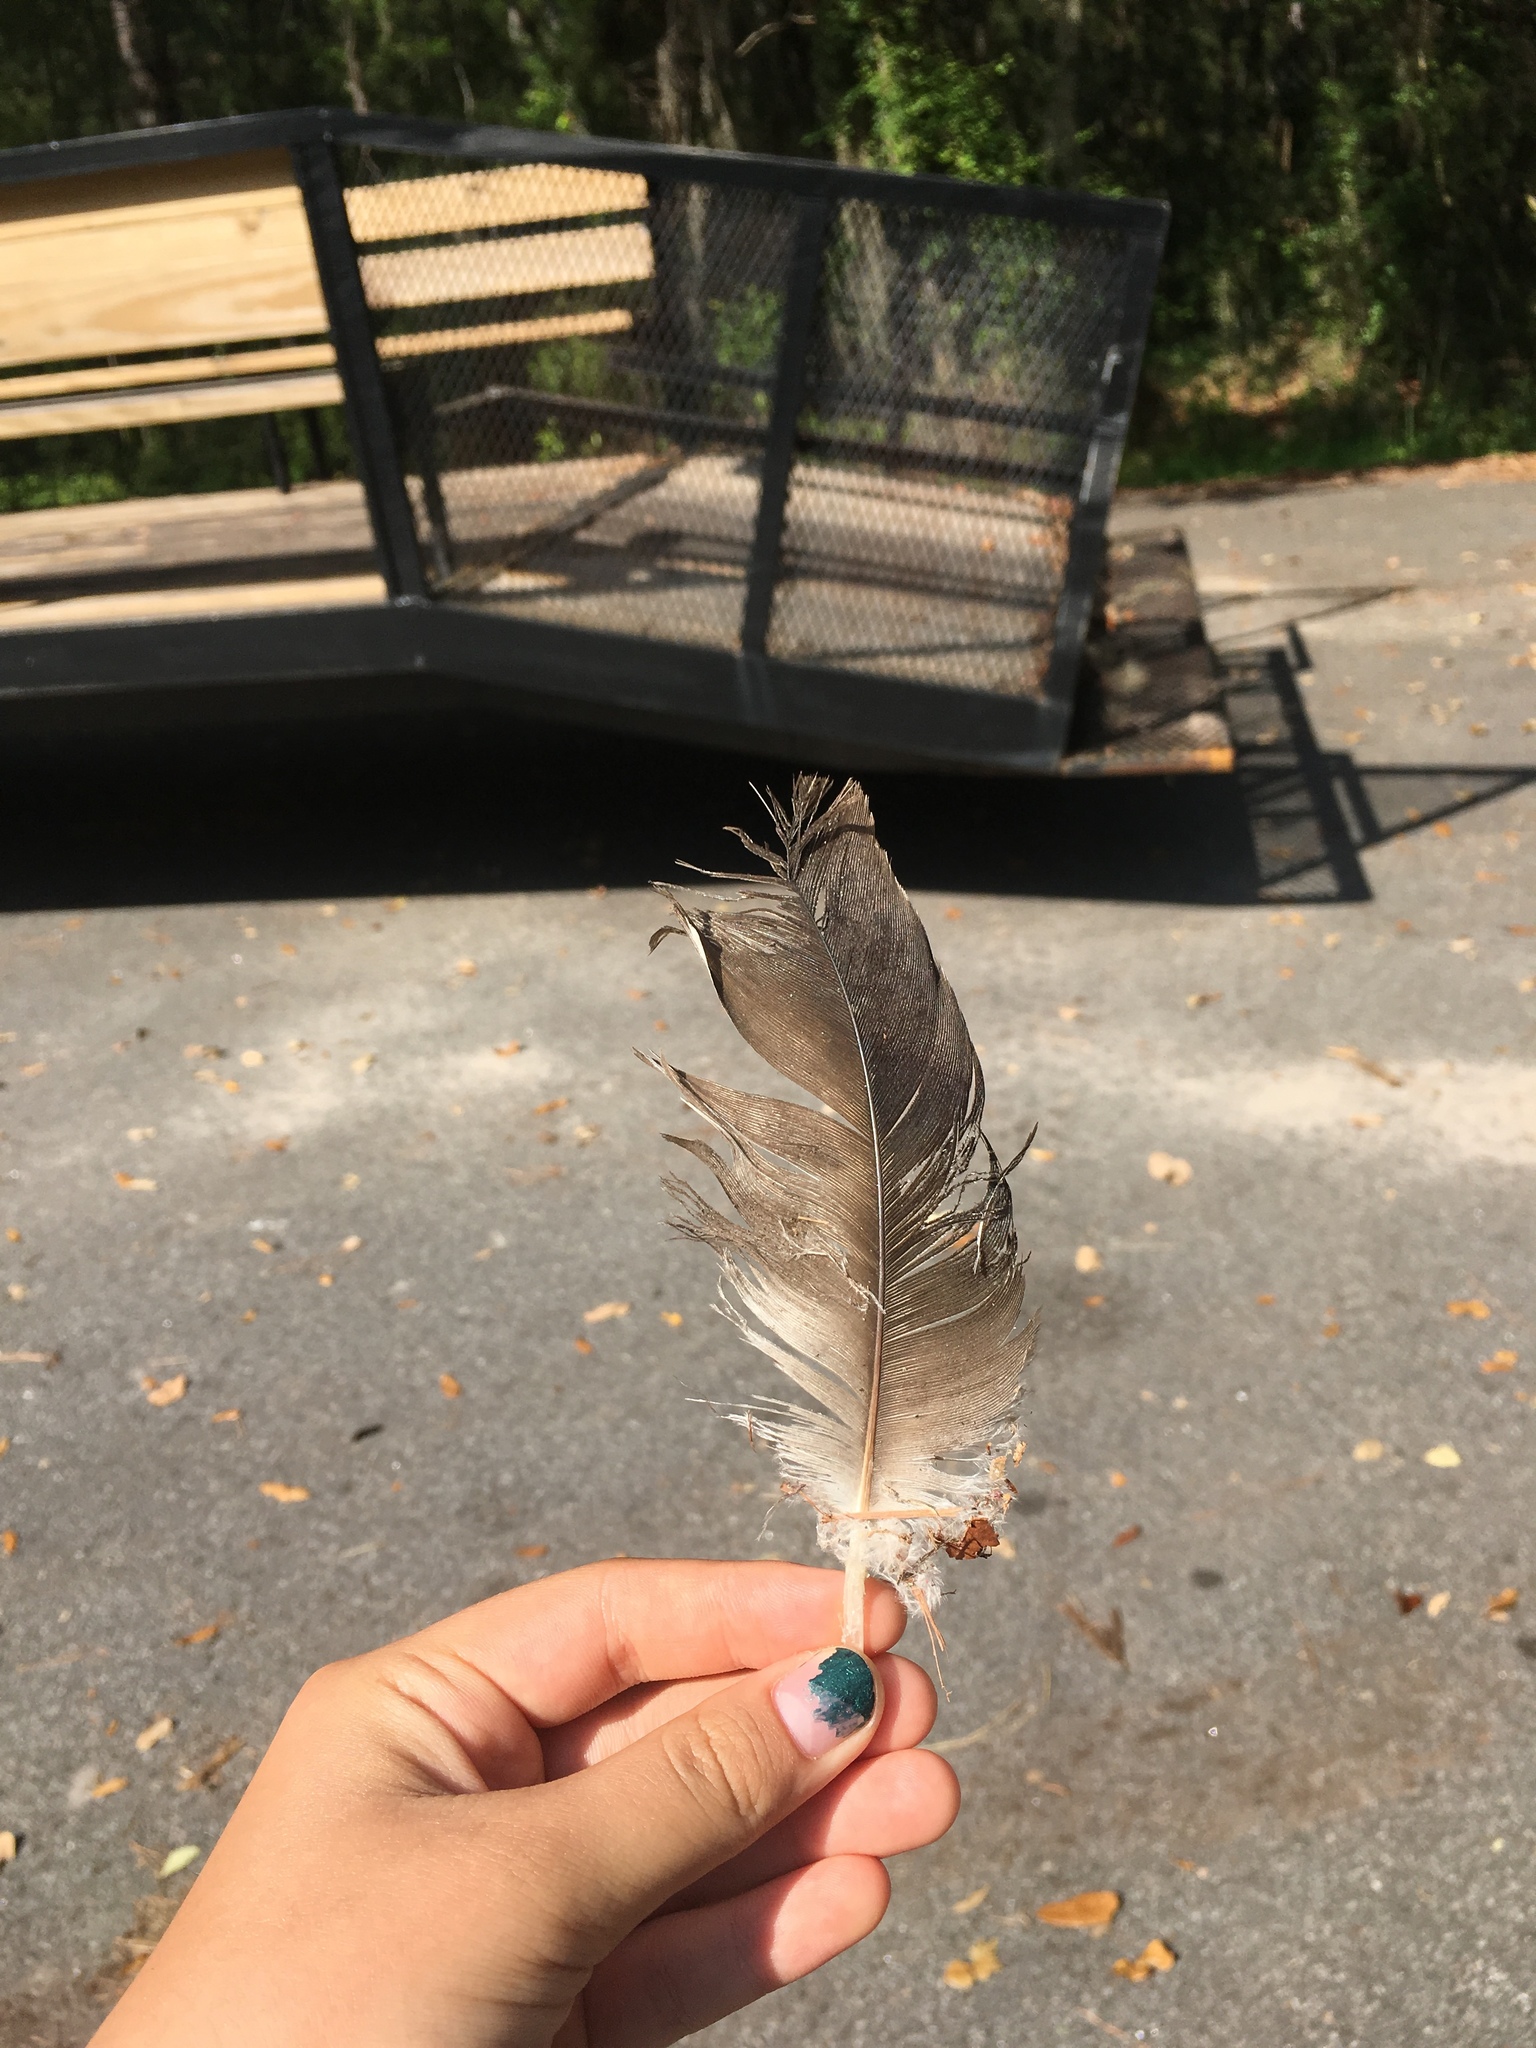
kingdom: Animalia
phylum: Chordata
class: Aves
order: Accipitriformes
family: Cathartidae
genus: Cathartes
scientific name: Cathartes aura
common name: Turkey vulture
